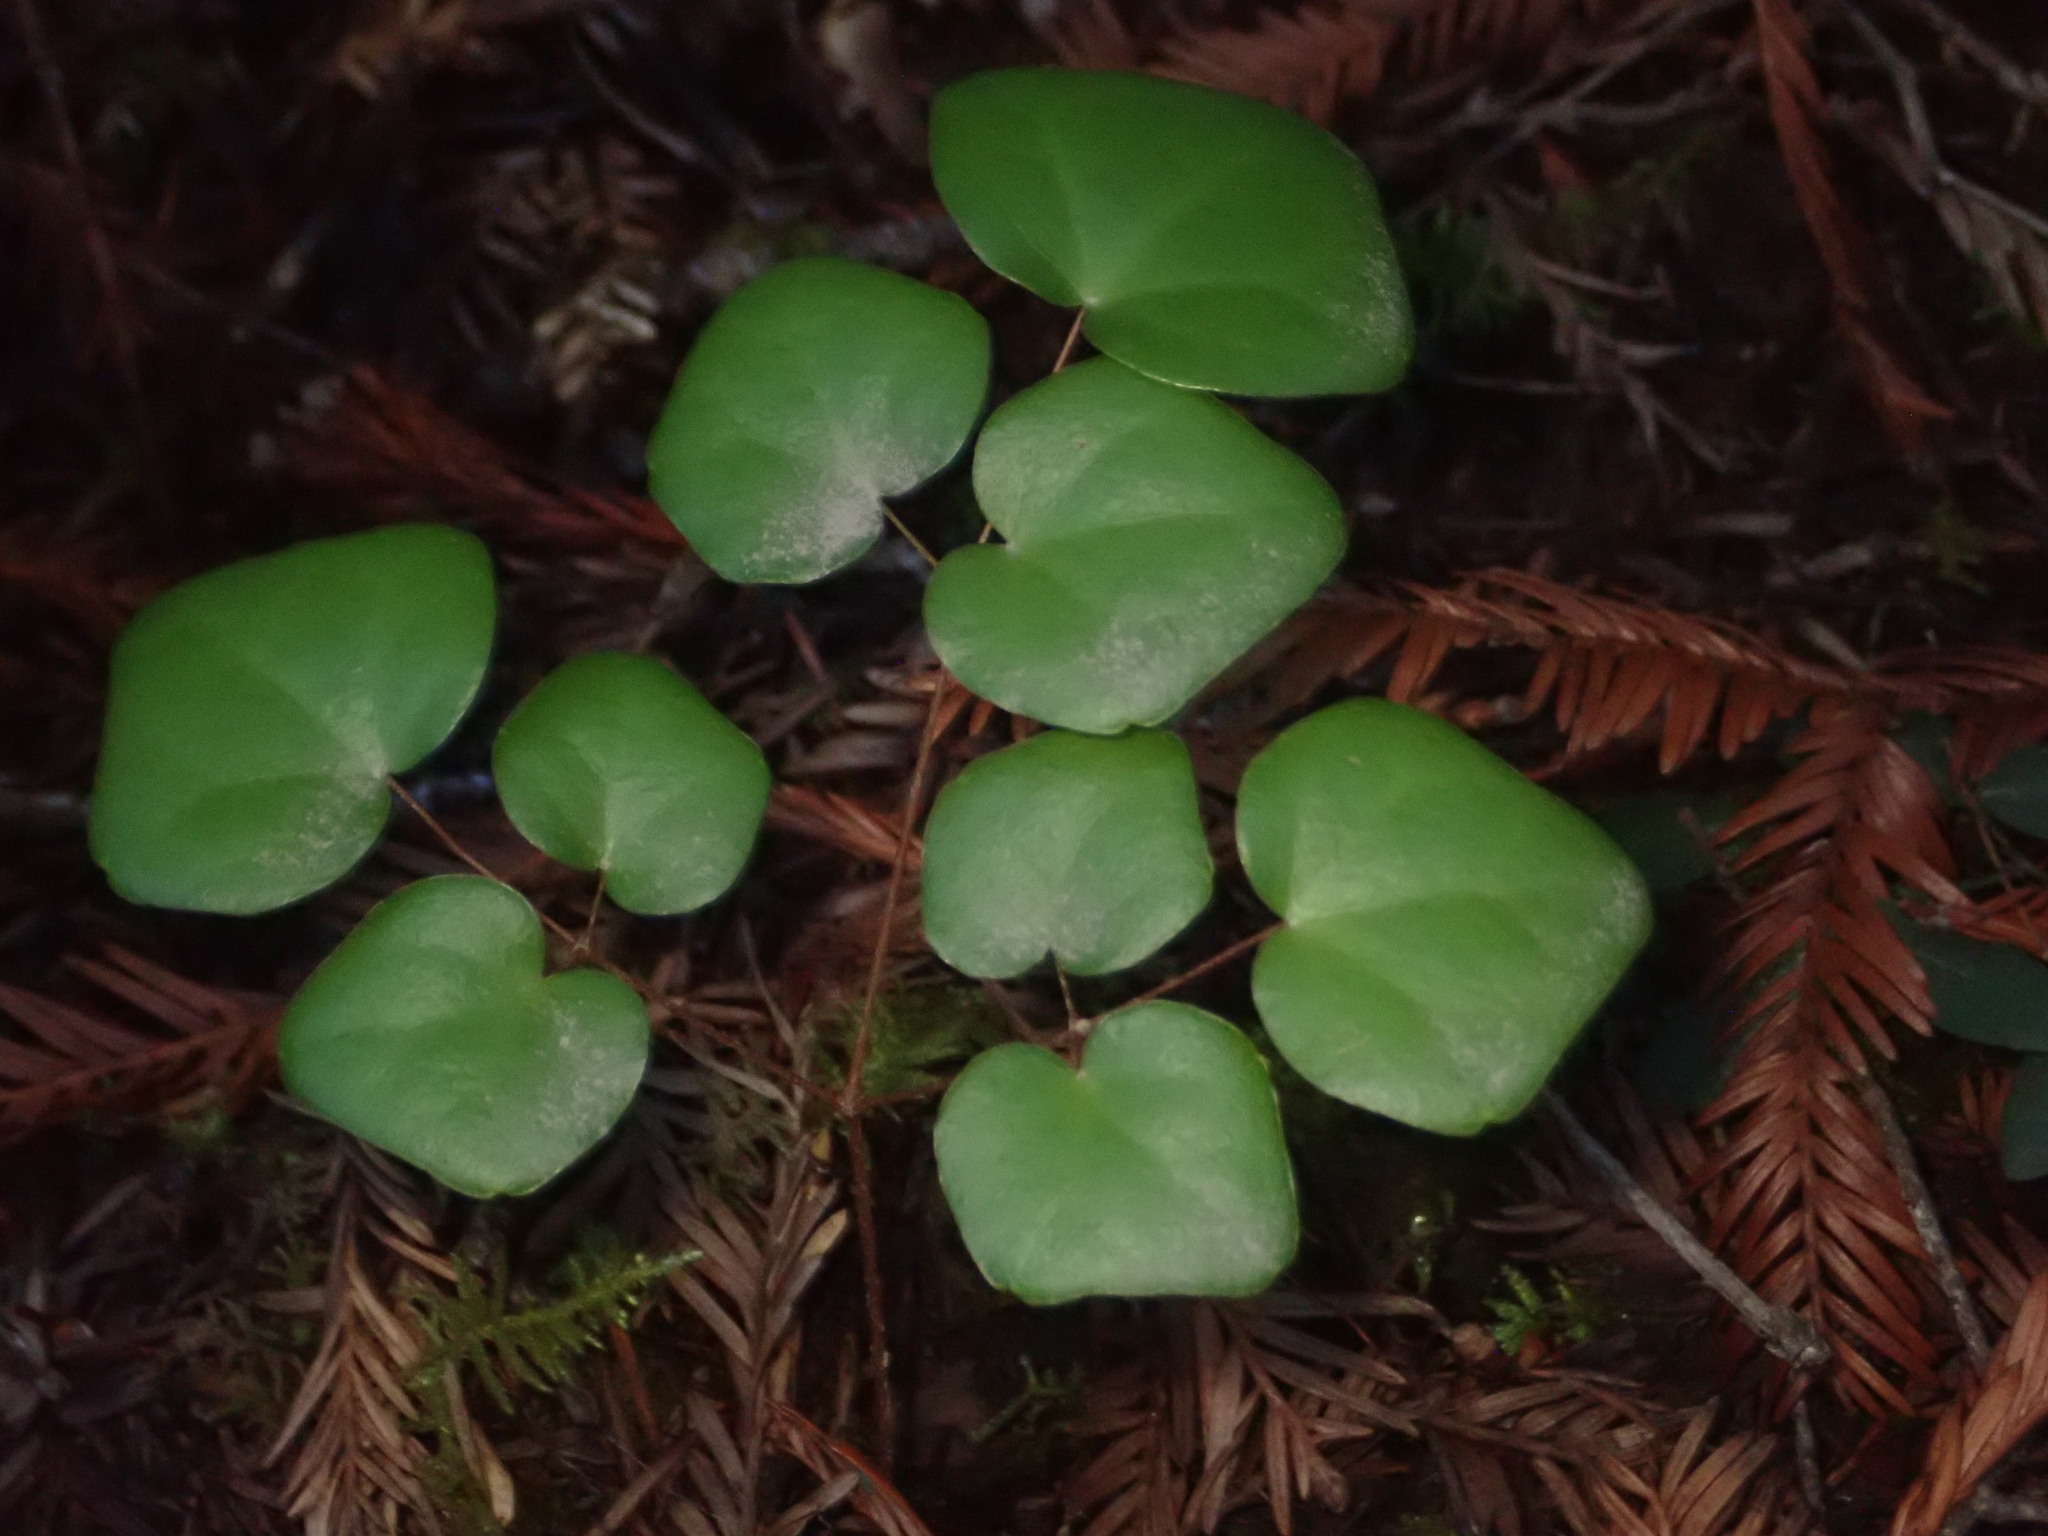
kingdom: Plantae
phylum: Tracheophyta
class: Magnoliopsida
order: Ranunculales
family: Berberidaceae
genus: Vancouveria
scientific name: Vancouveria planipetala
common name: Redwood-ivy
